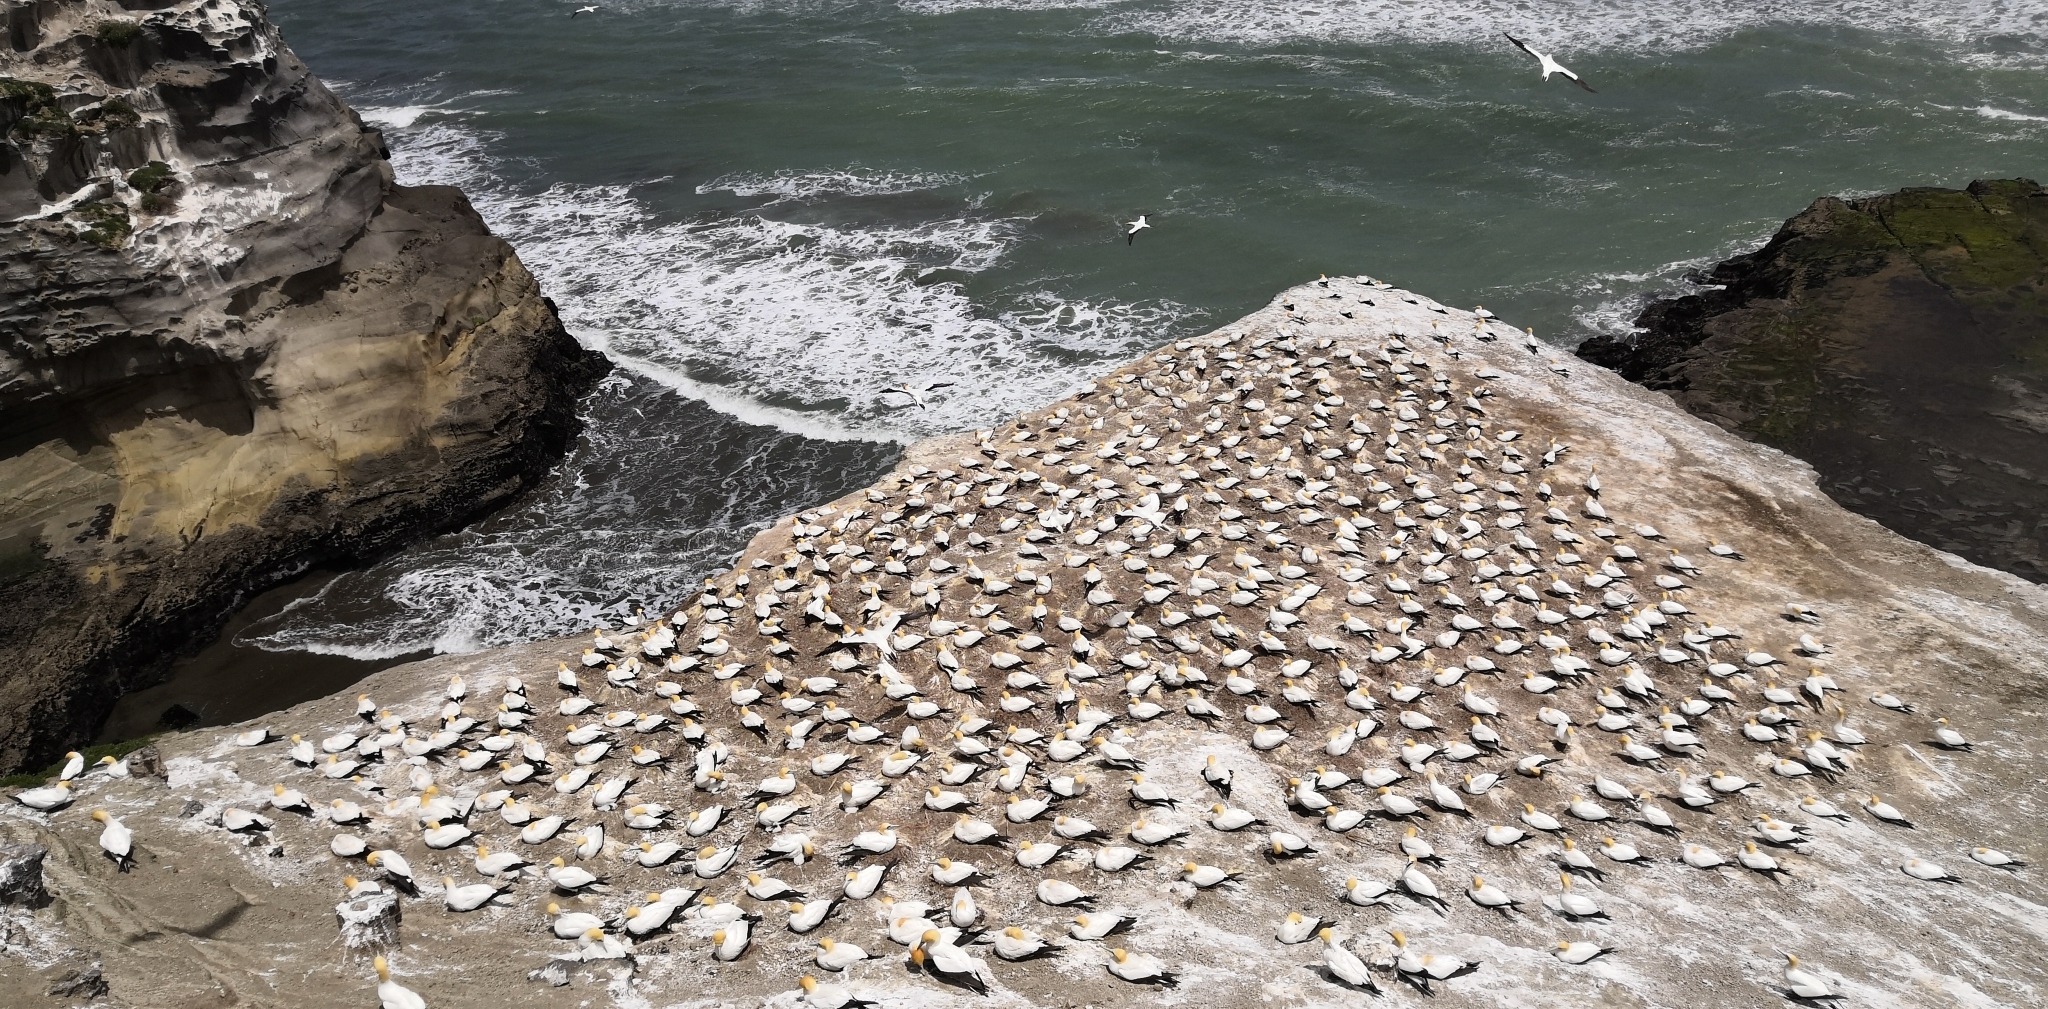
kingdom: Animalia
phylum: Chordata
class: Aves
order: Suliformes
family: Sulidae
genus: Morus
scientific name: Morus serrator
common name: Australasian gannet
